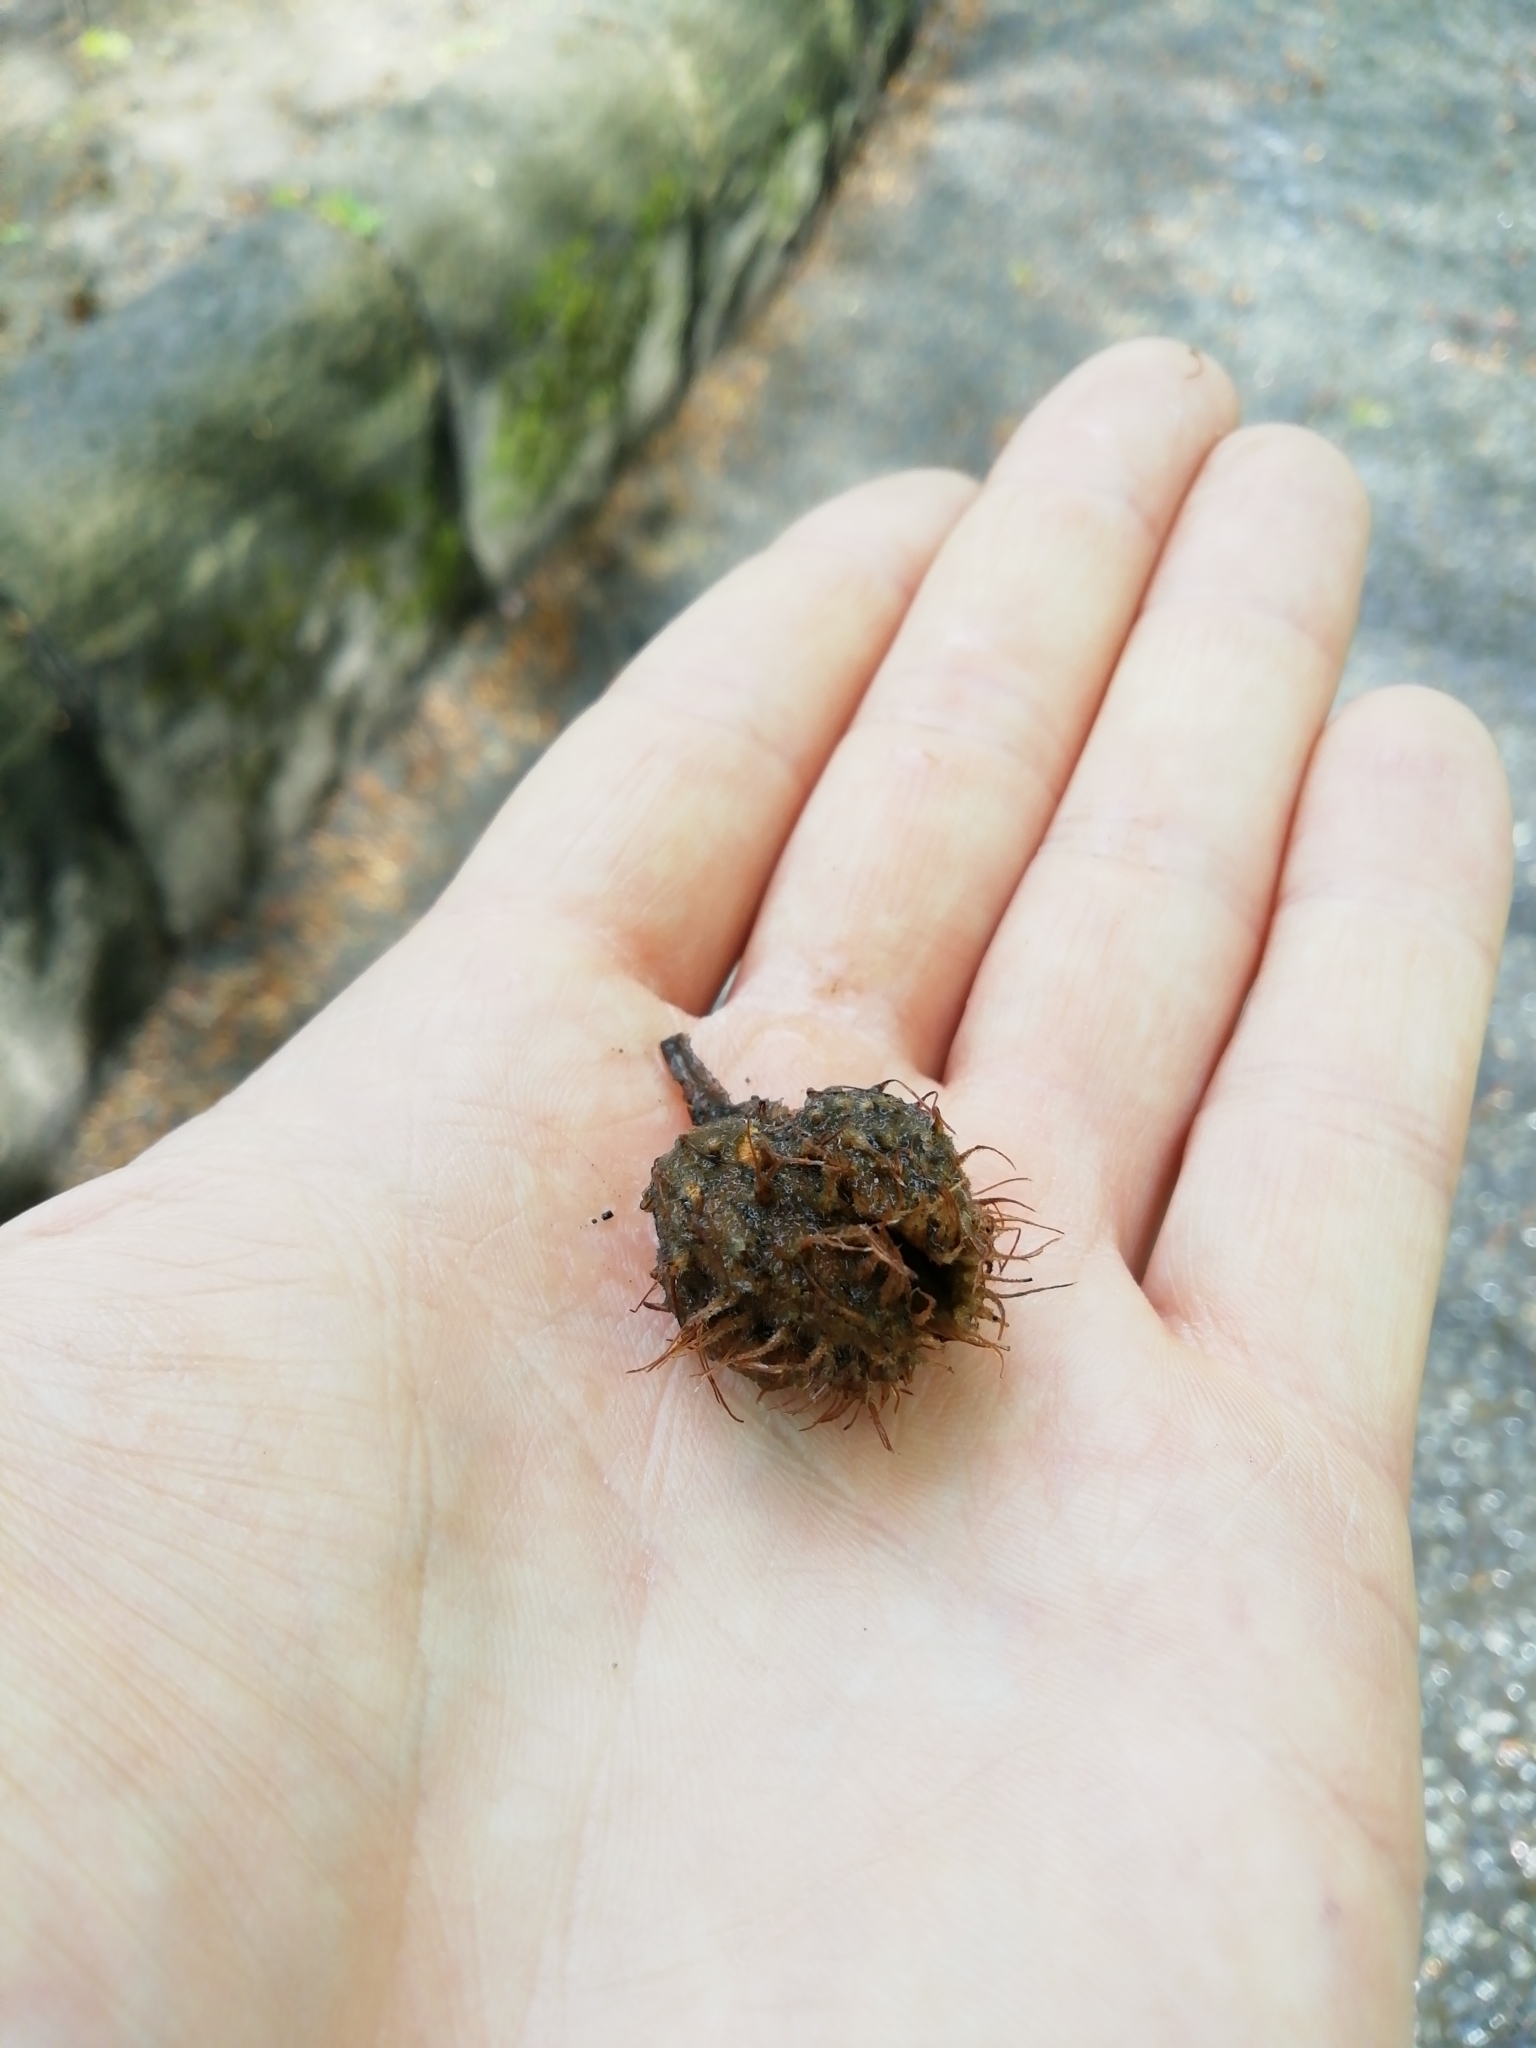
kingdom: Plantae
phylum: Tracheophyta
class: Magnoliopsida
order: Fagales
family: Fagaceae
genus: Fagus
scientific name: Fagus sylvatica
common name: Beech
